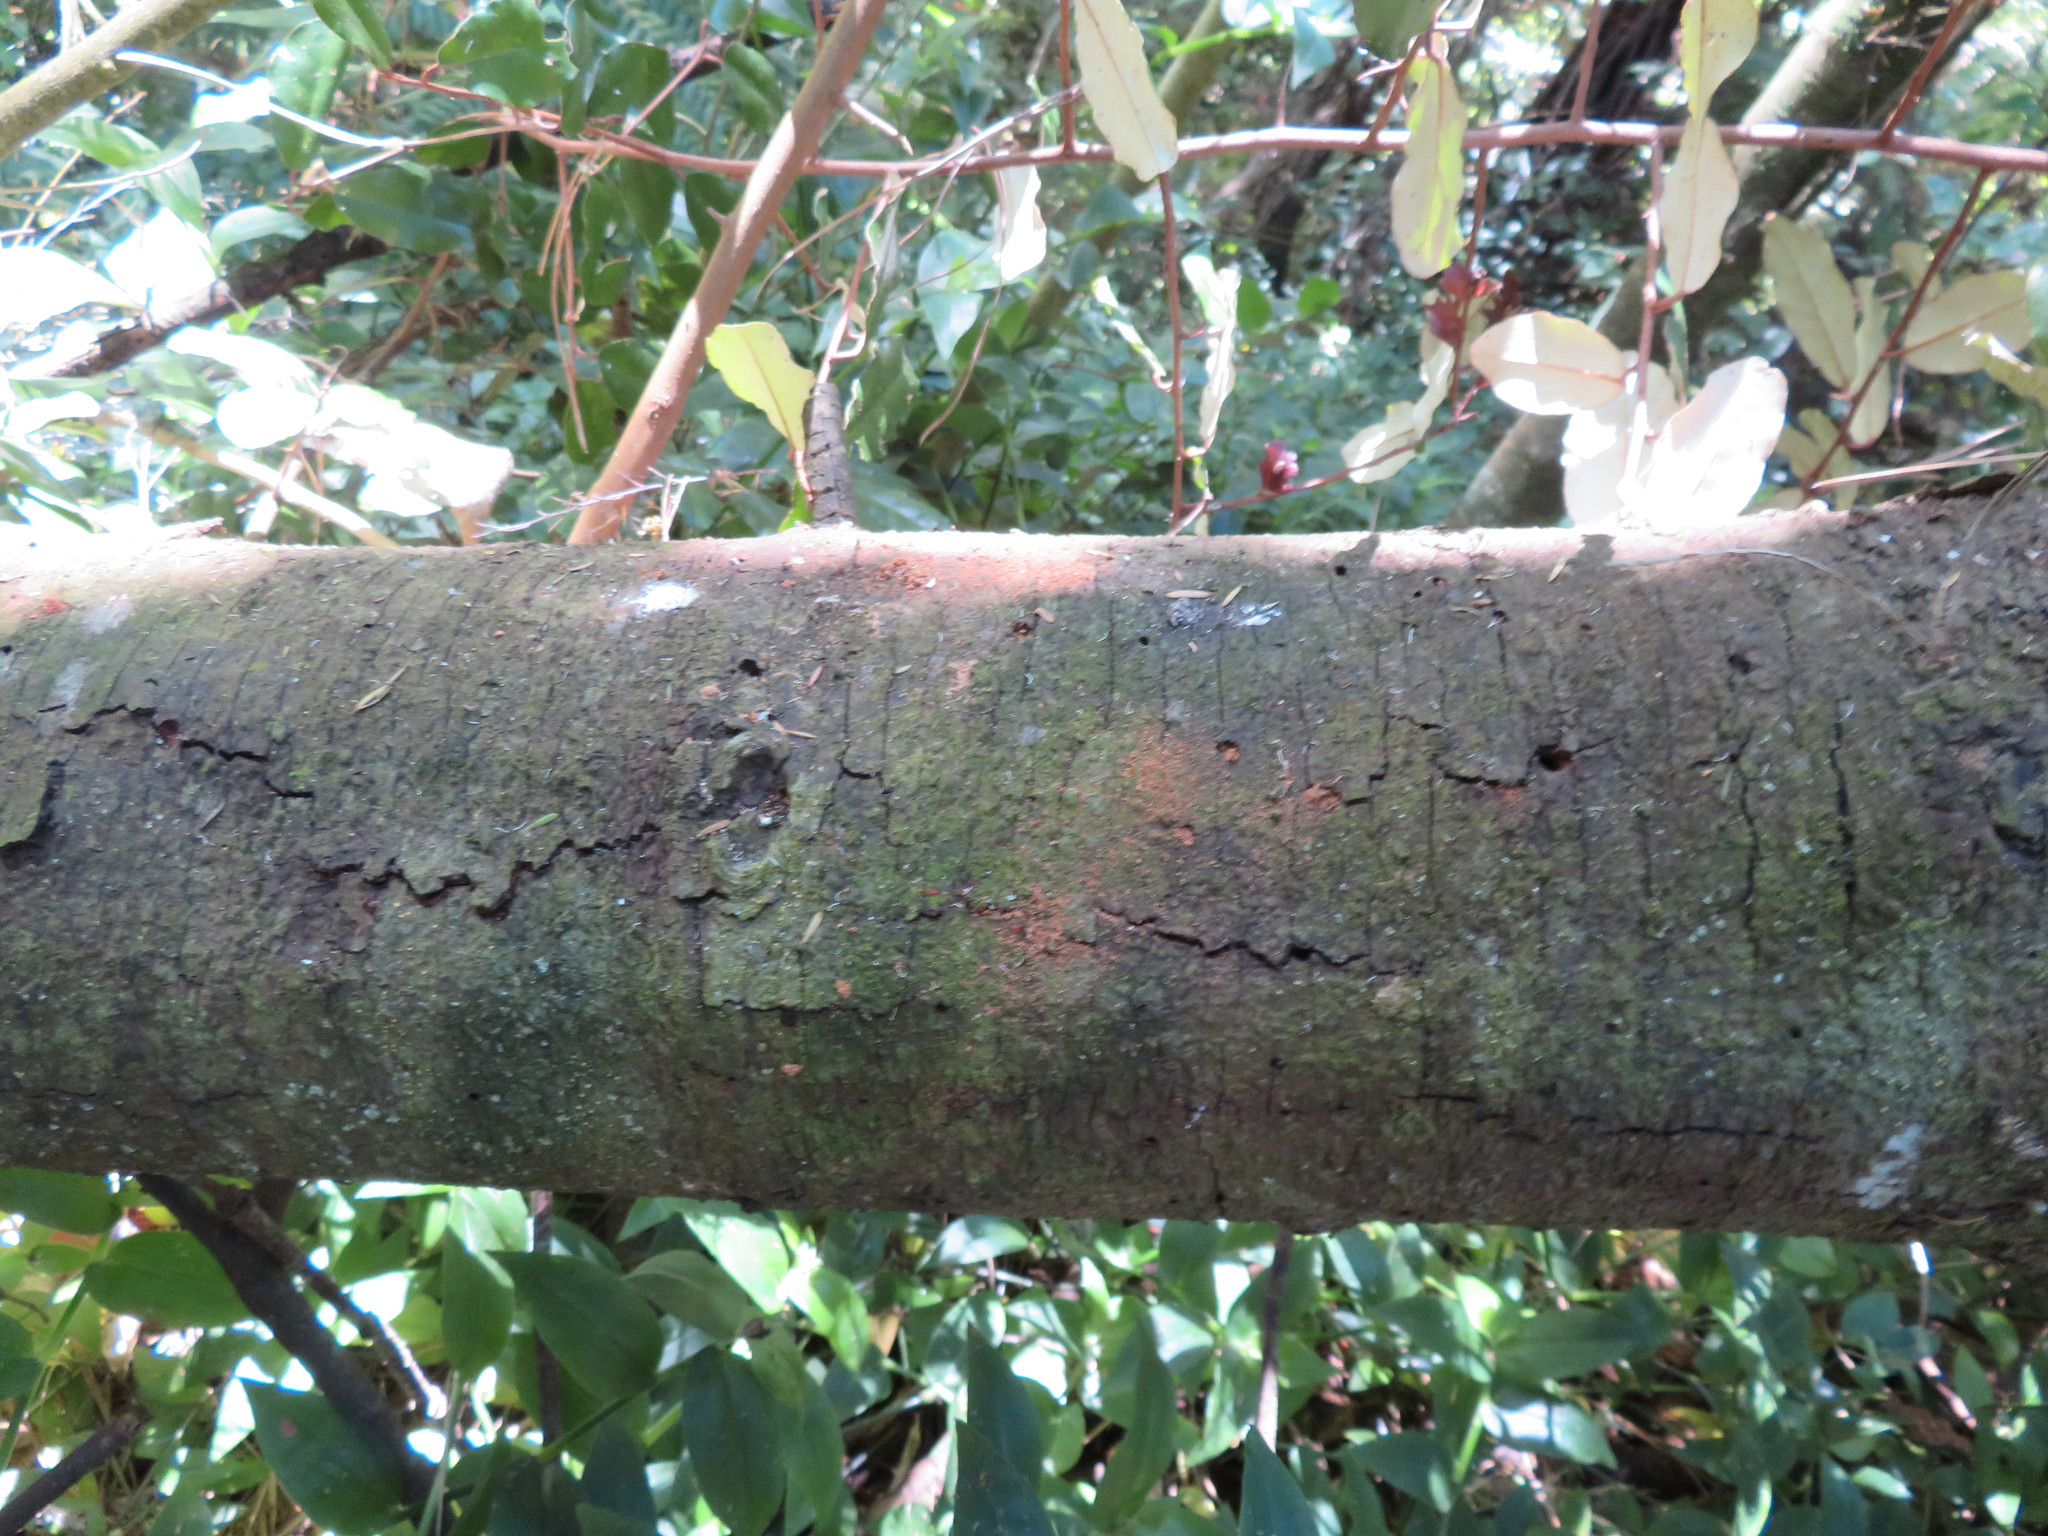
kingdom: Plantae
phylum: Tracheophyta
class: Pinopsida
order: Pinales
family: Phyllocladaceae
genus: Phyllocladus
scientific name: Phyllocladus trichomanoides
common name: Celery pine
